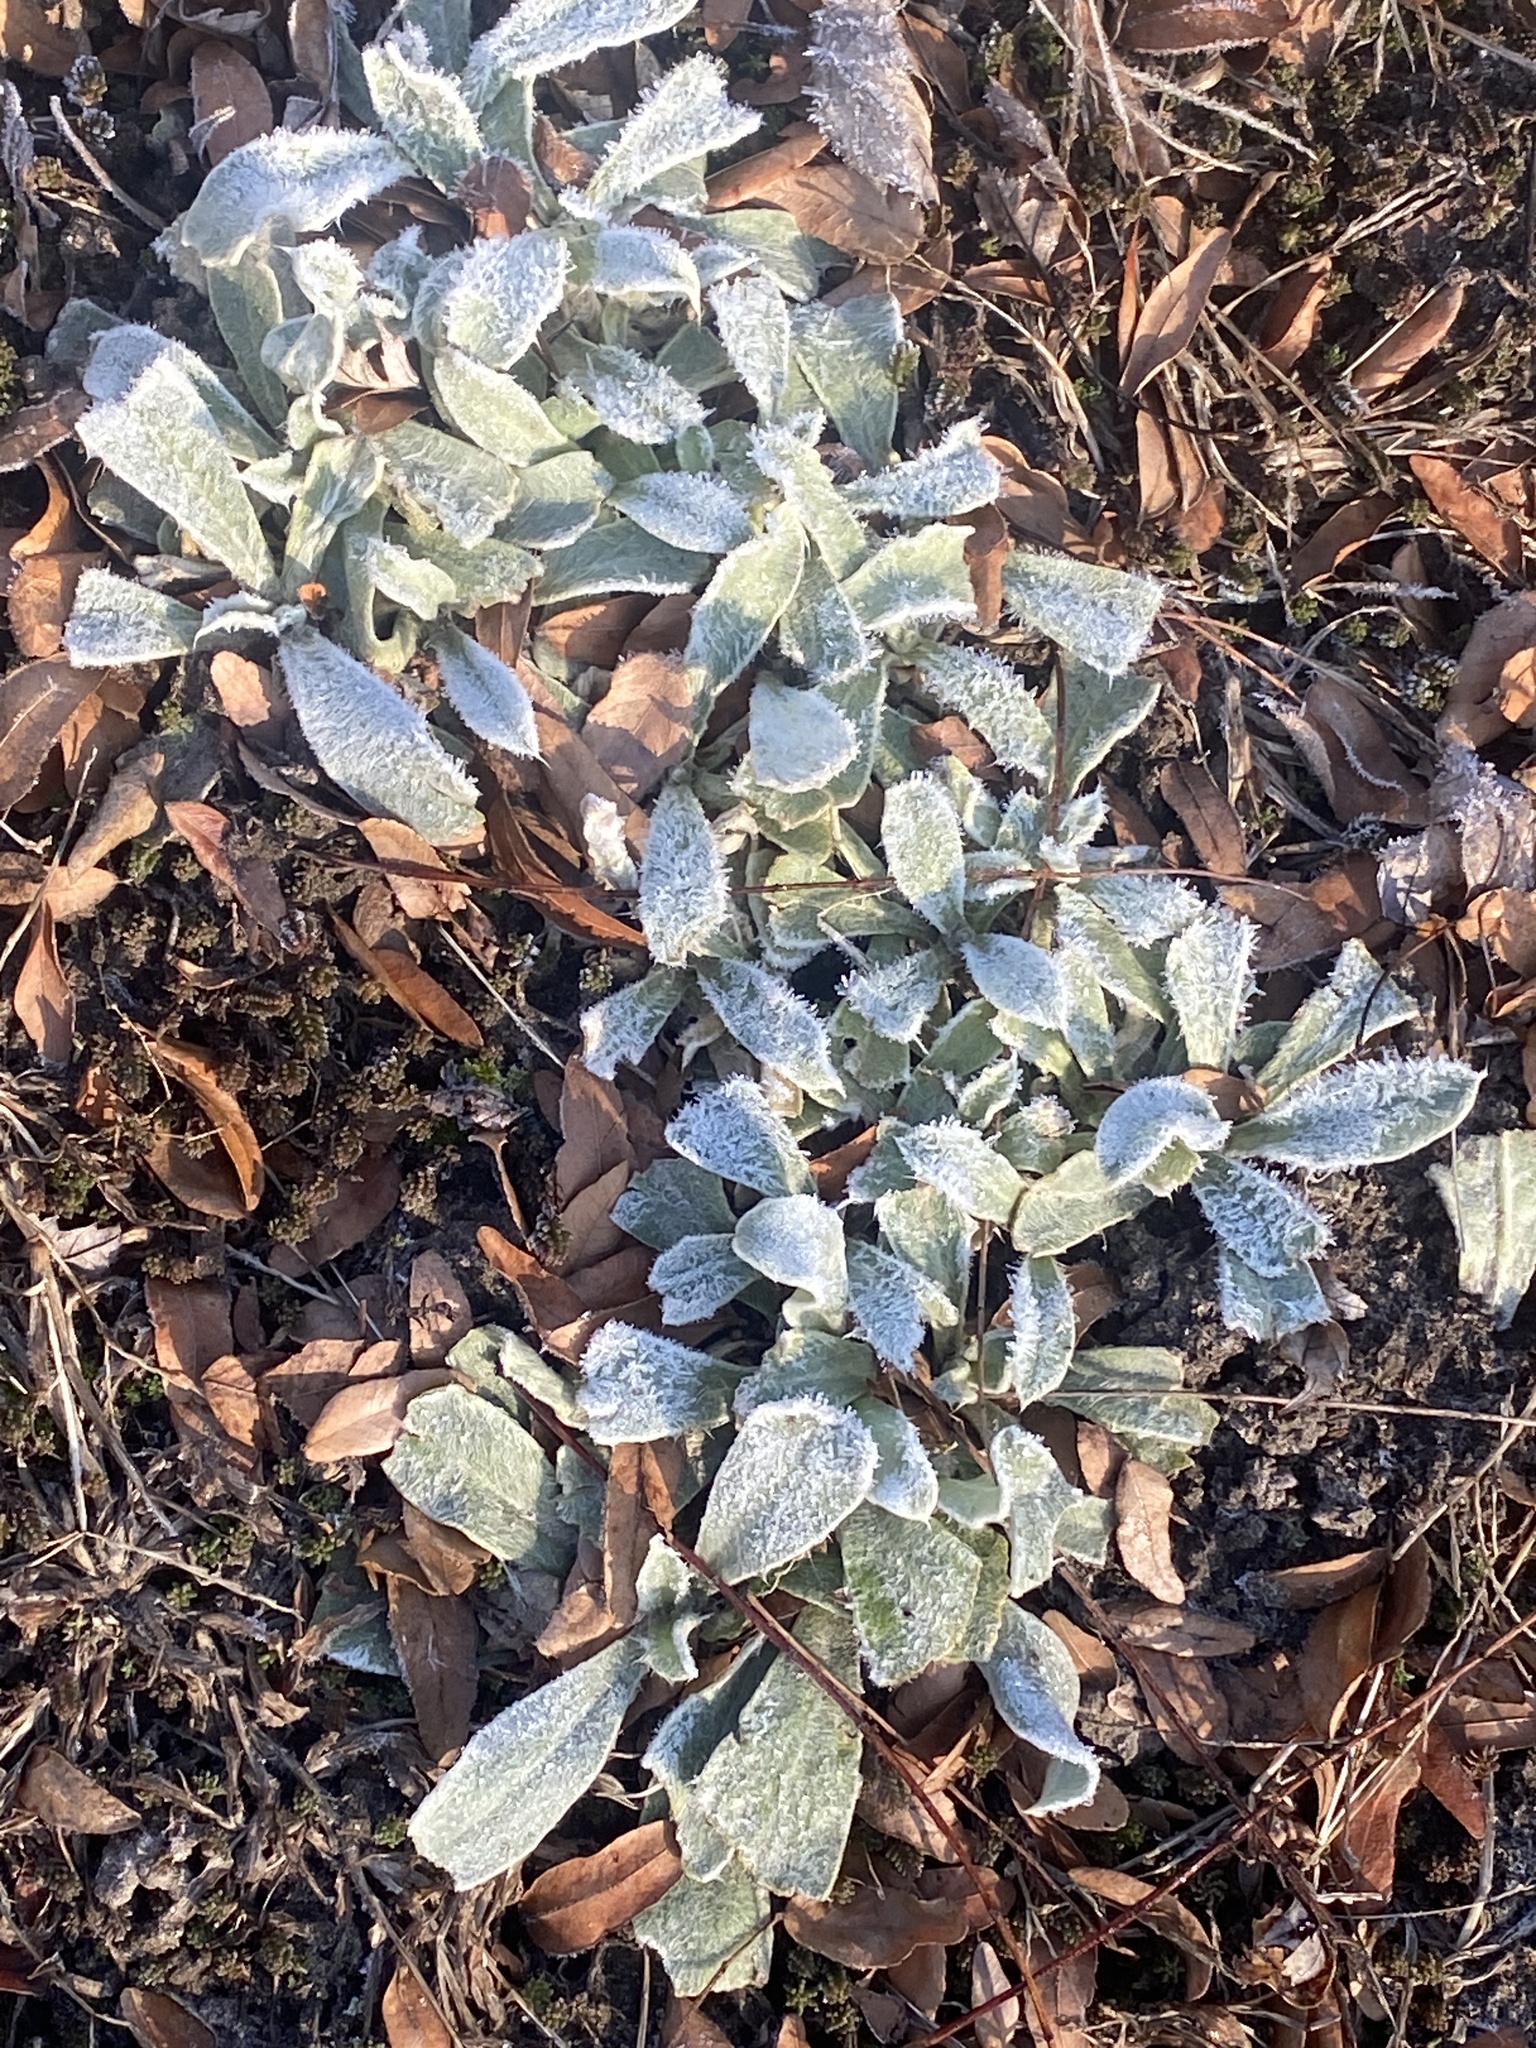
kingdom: Plantae
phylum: Tracheophyta
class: Magnoliopsida
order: Caryophyllales
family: Caryophyllaceae
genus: Silene
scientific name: Silene coronaria
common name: Rose campion
